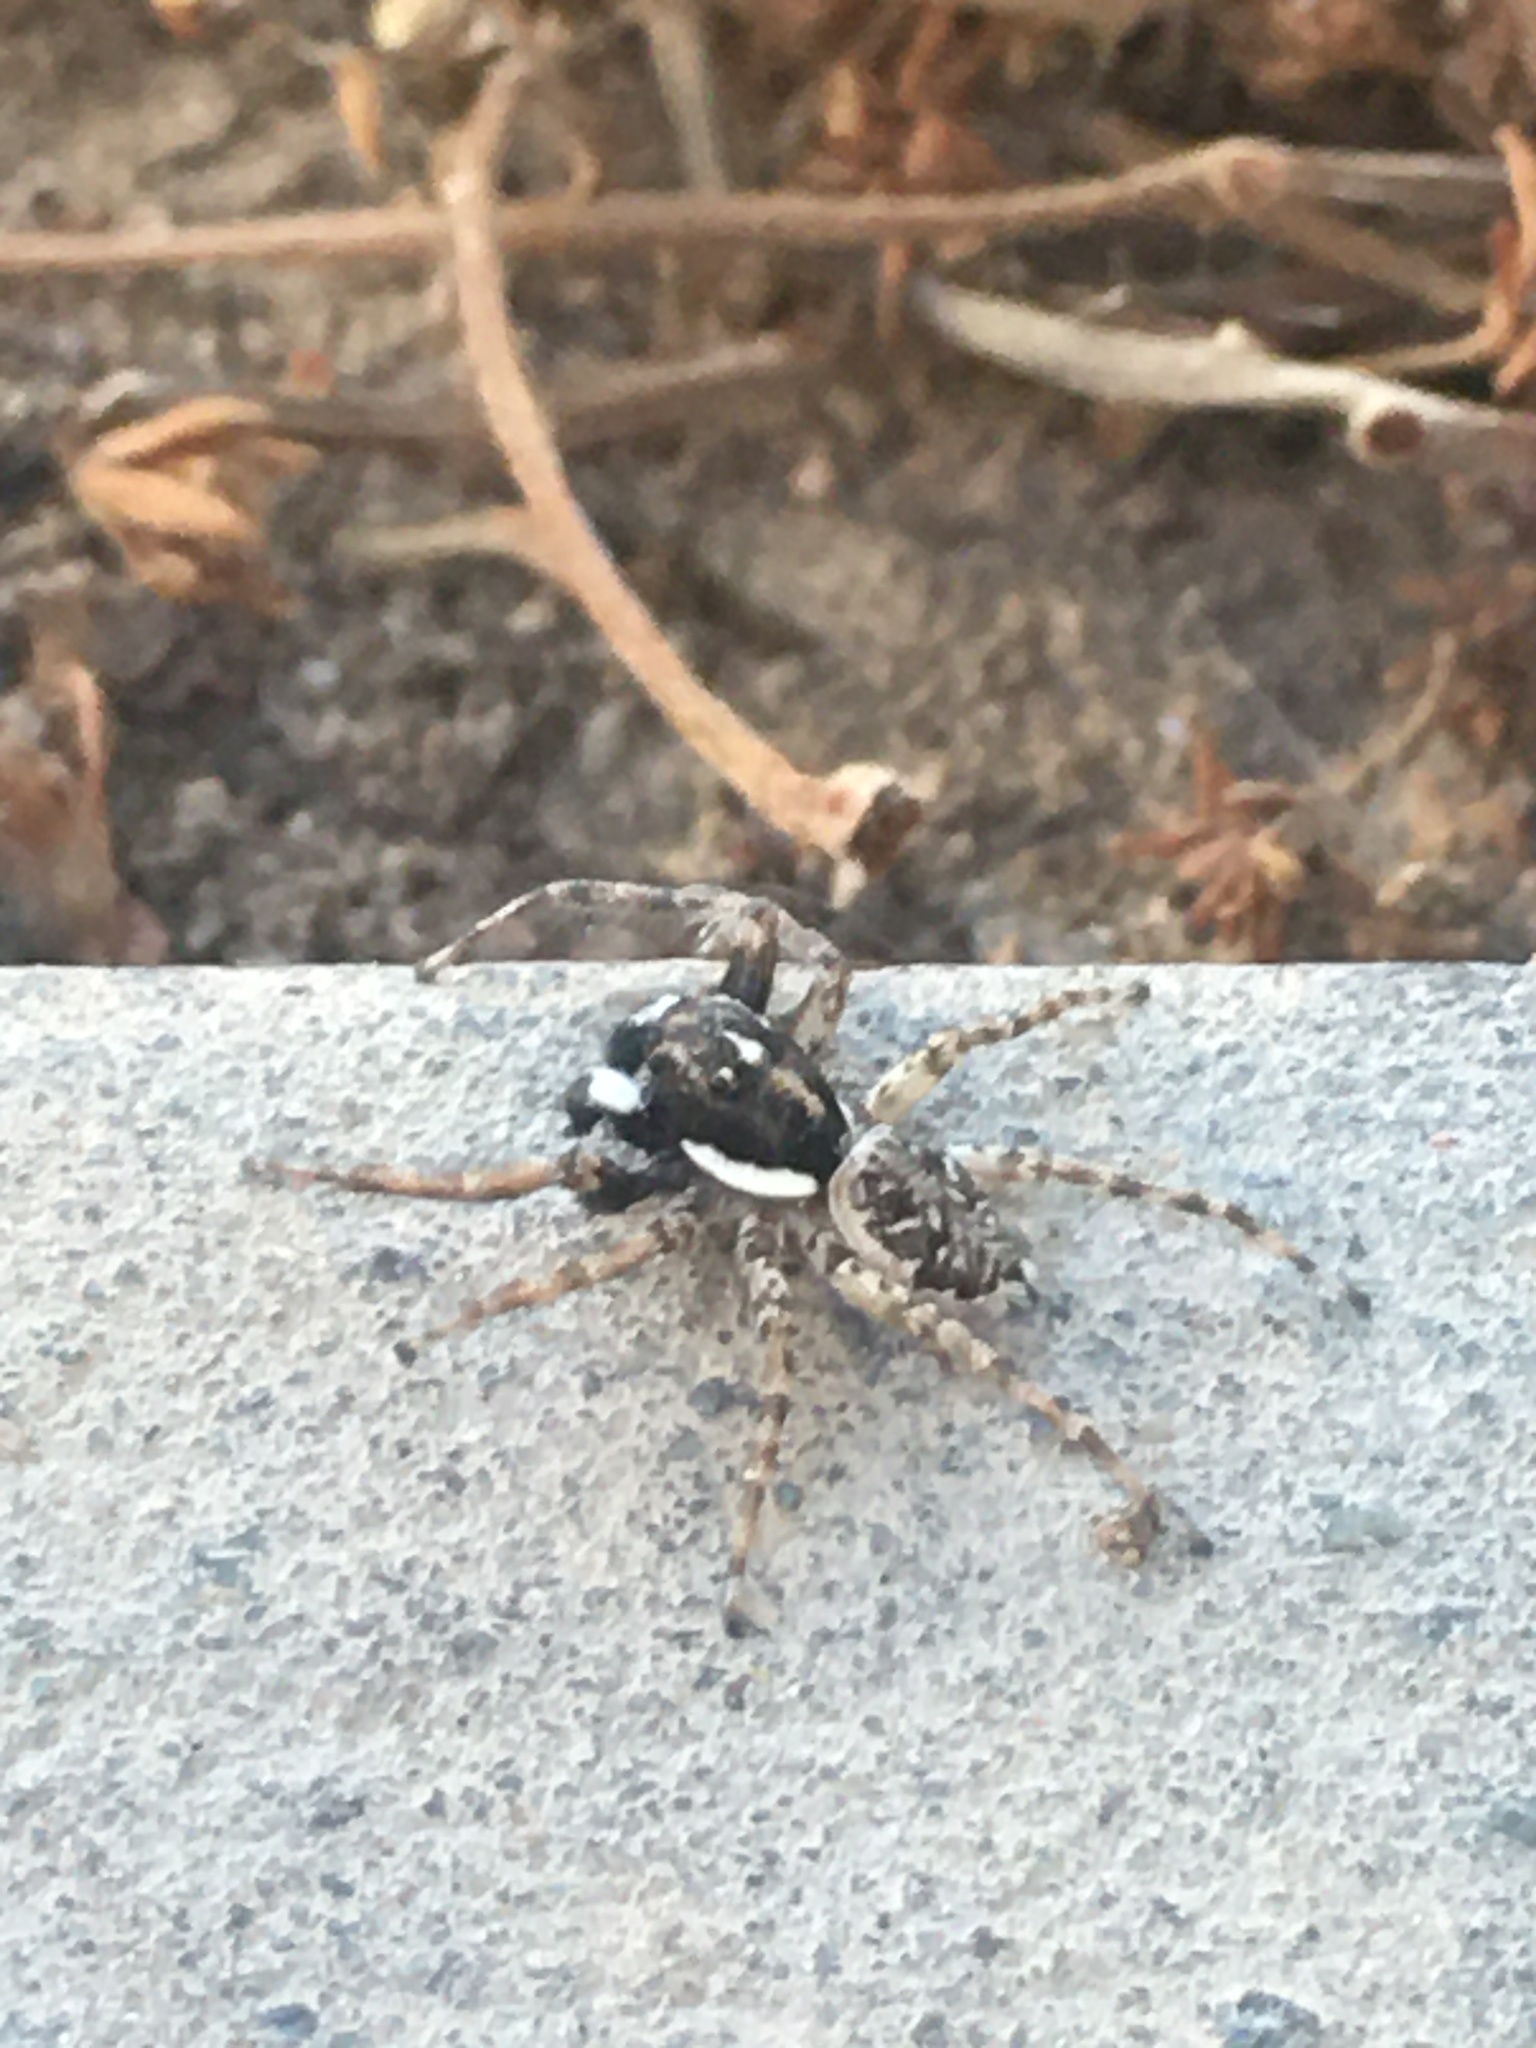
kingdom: Animalia
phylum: Arthropoda
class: Arachnida
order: Araneae
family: Salticidae
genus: Menemerus
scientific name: Menemerus semilimbatus
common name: Jumping spider
